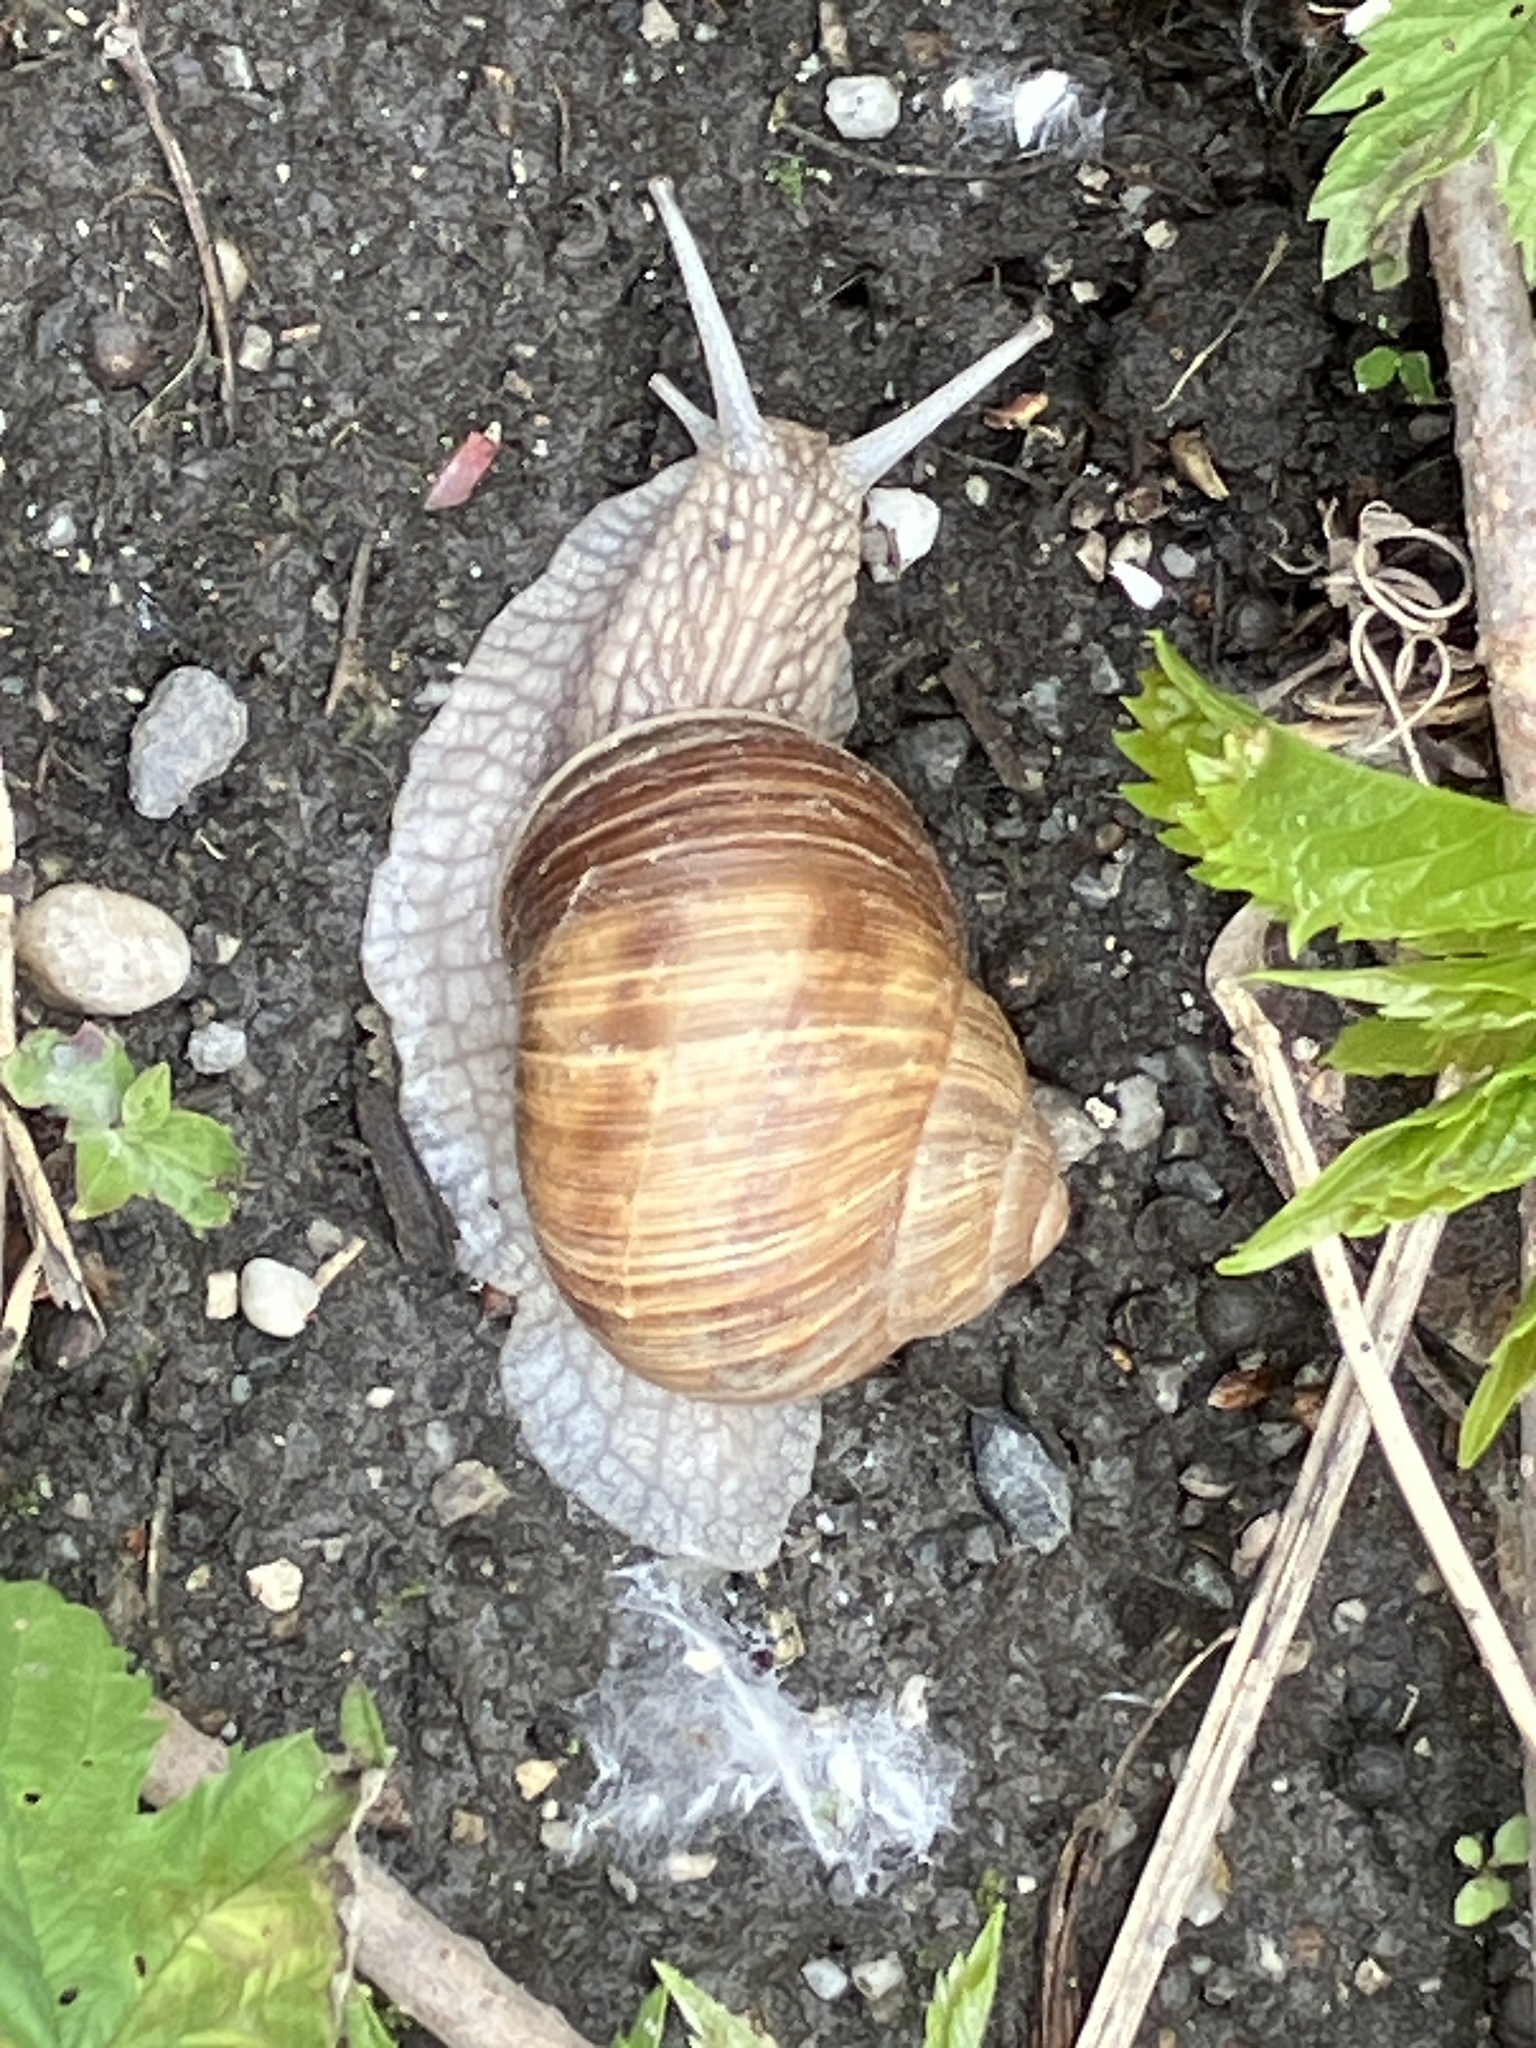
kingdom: Animalia
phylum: Mollusca
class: Gastropoda
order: Stylommatophora
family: Helicidae
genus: Helix
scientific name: Helix pomatia
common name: Roman snail
